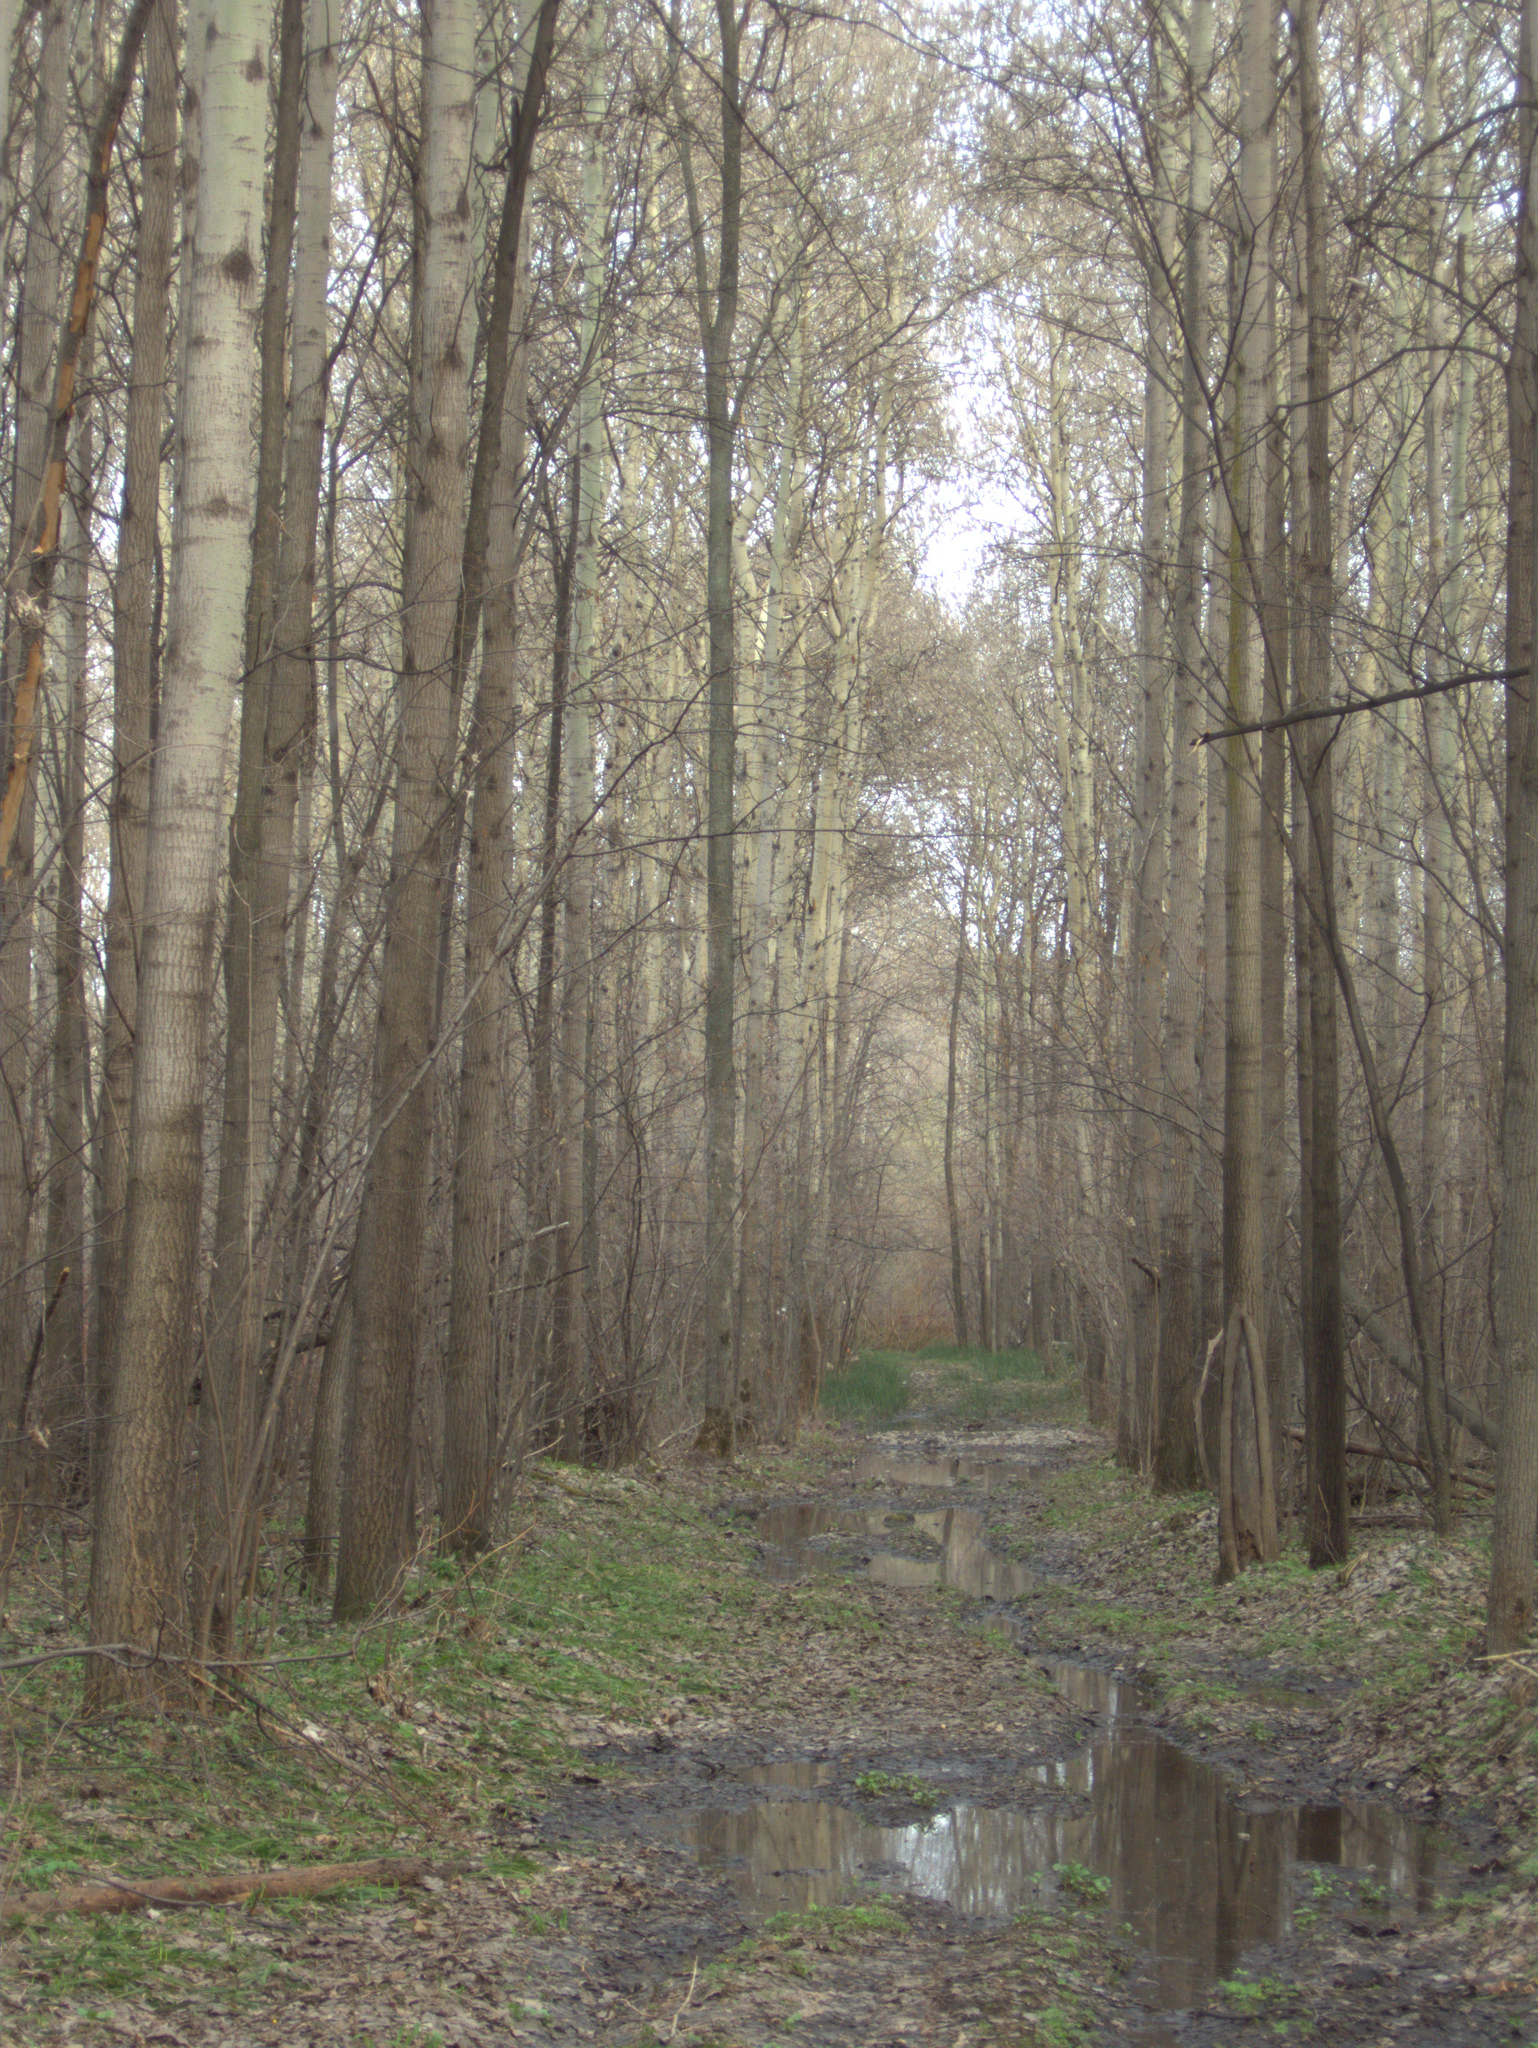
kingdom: Plantae
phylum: Tracheophyta
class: Magnoliopsida
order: Malpighiales
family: Salicaceae
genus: Populus
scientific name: Populus tremula
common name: European aspen
